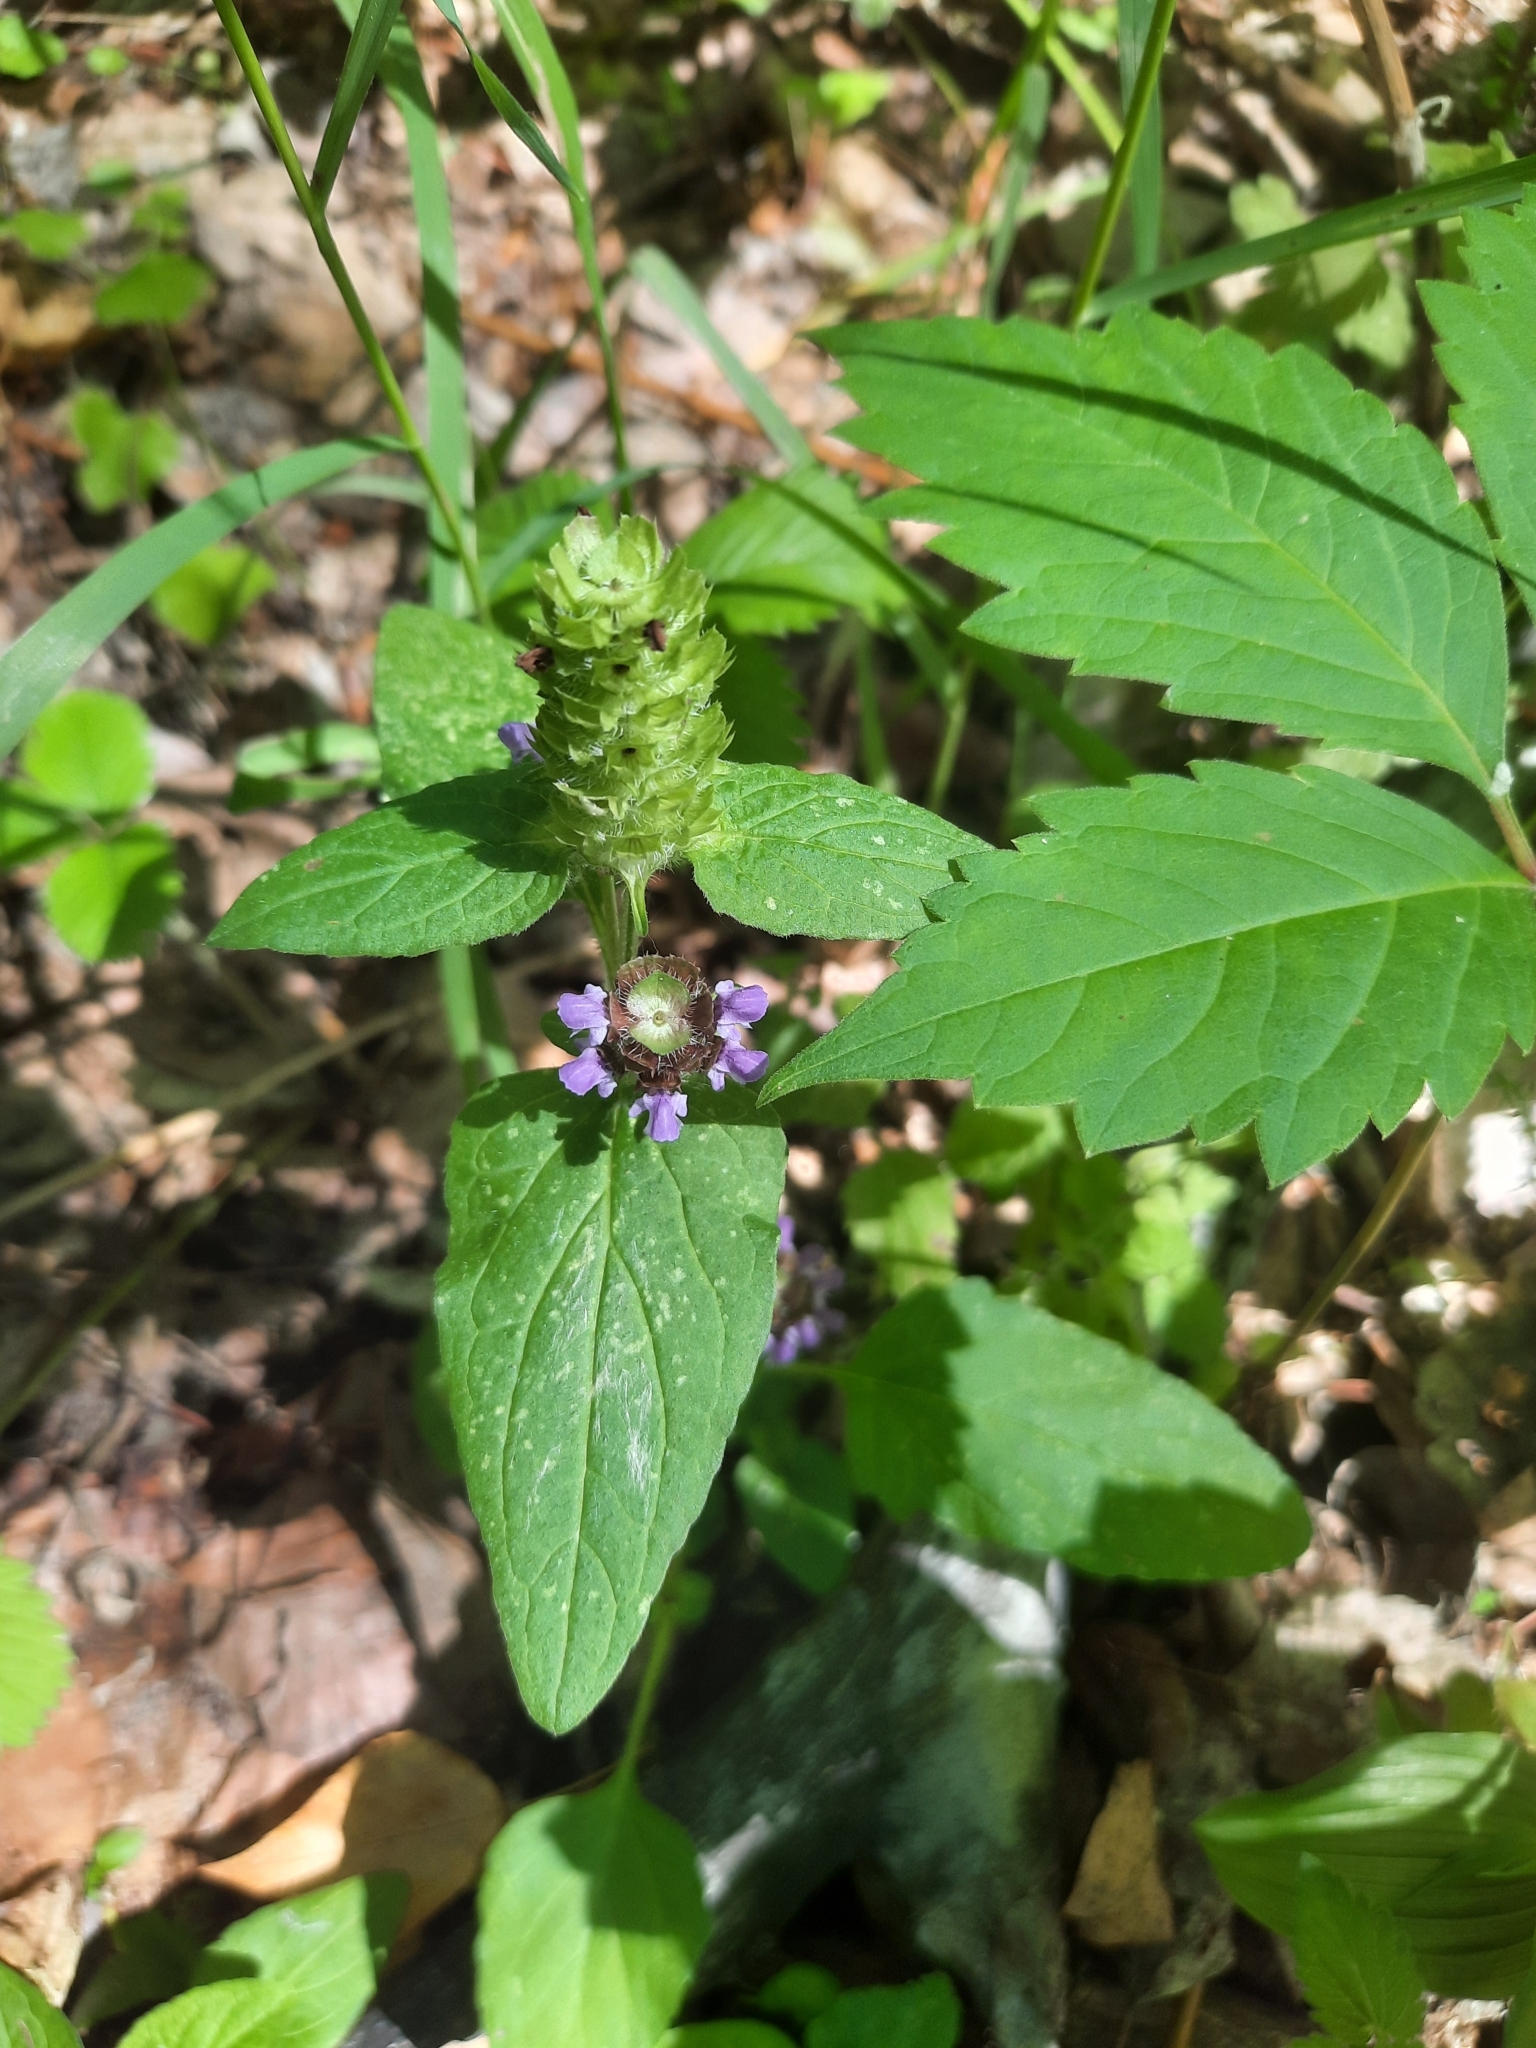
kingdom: Plantae
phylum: Tracheophyta
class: Magnoliopsida
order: Lamiales
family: Lamiaceae
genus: Prunella
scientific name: Prunella vulgaris
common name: Heal-all
